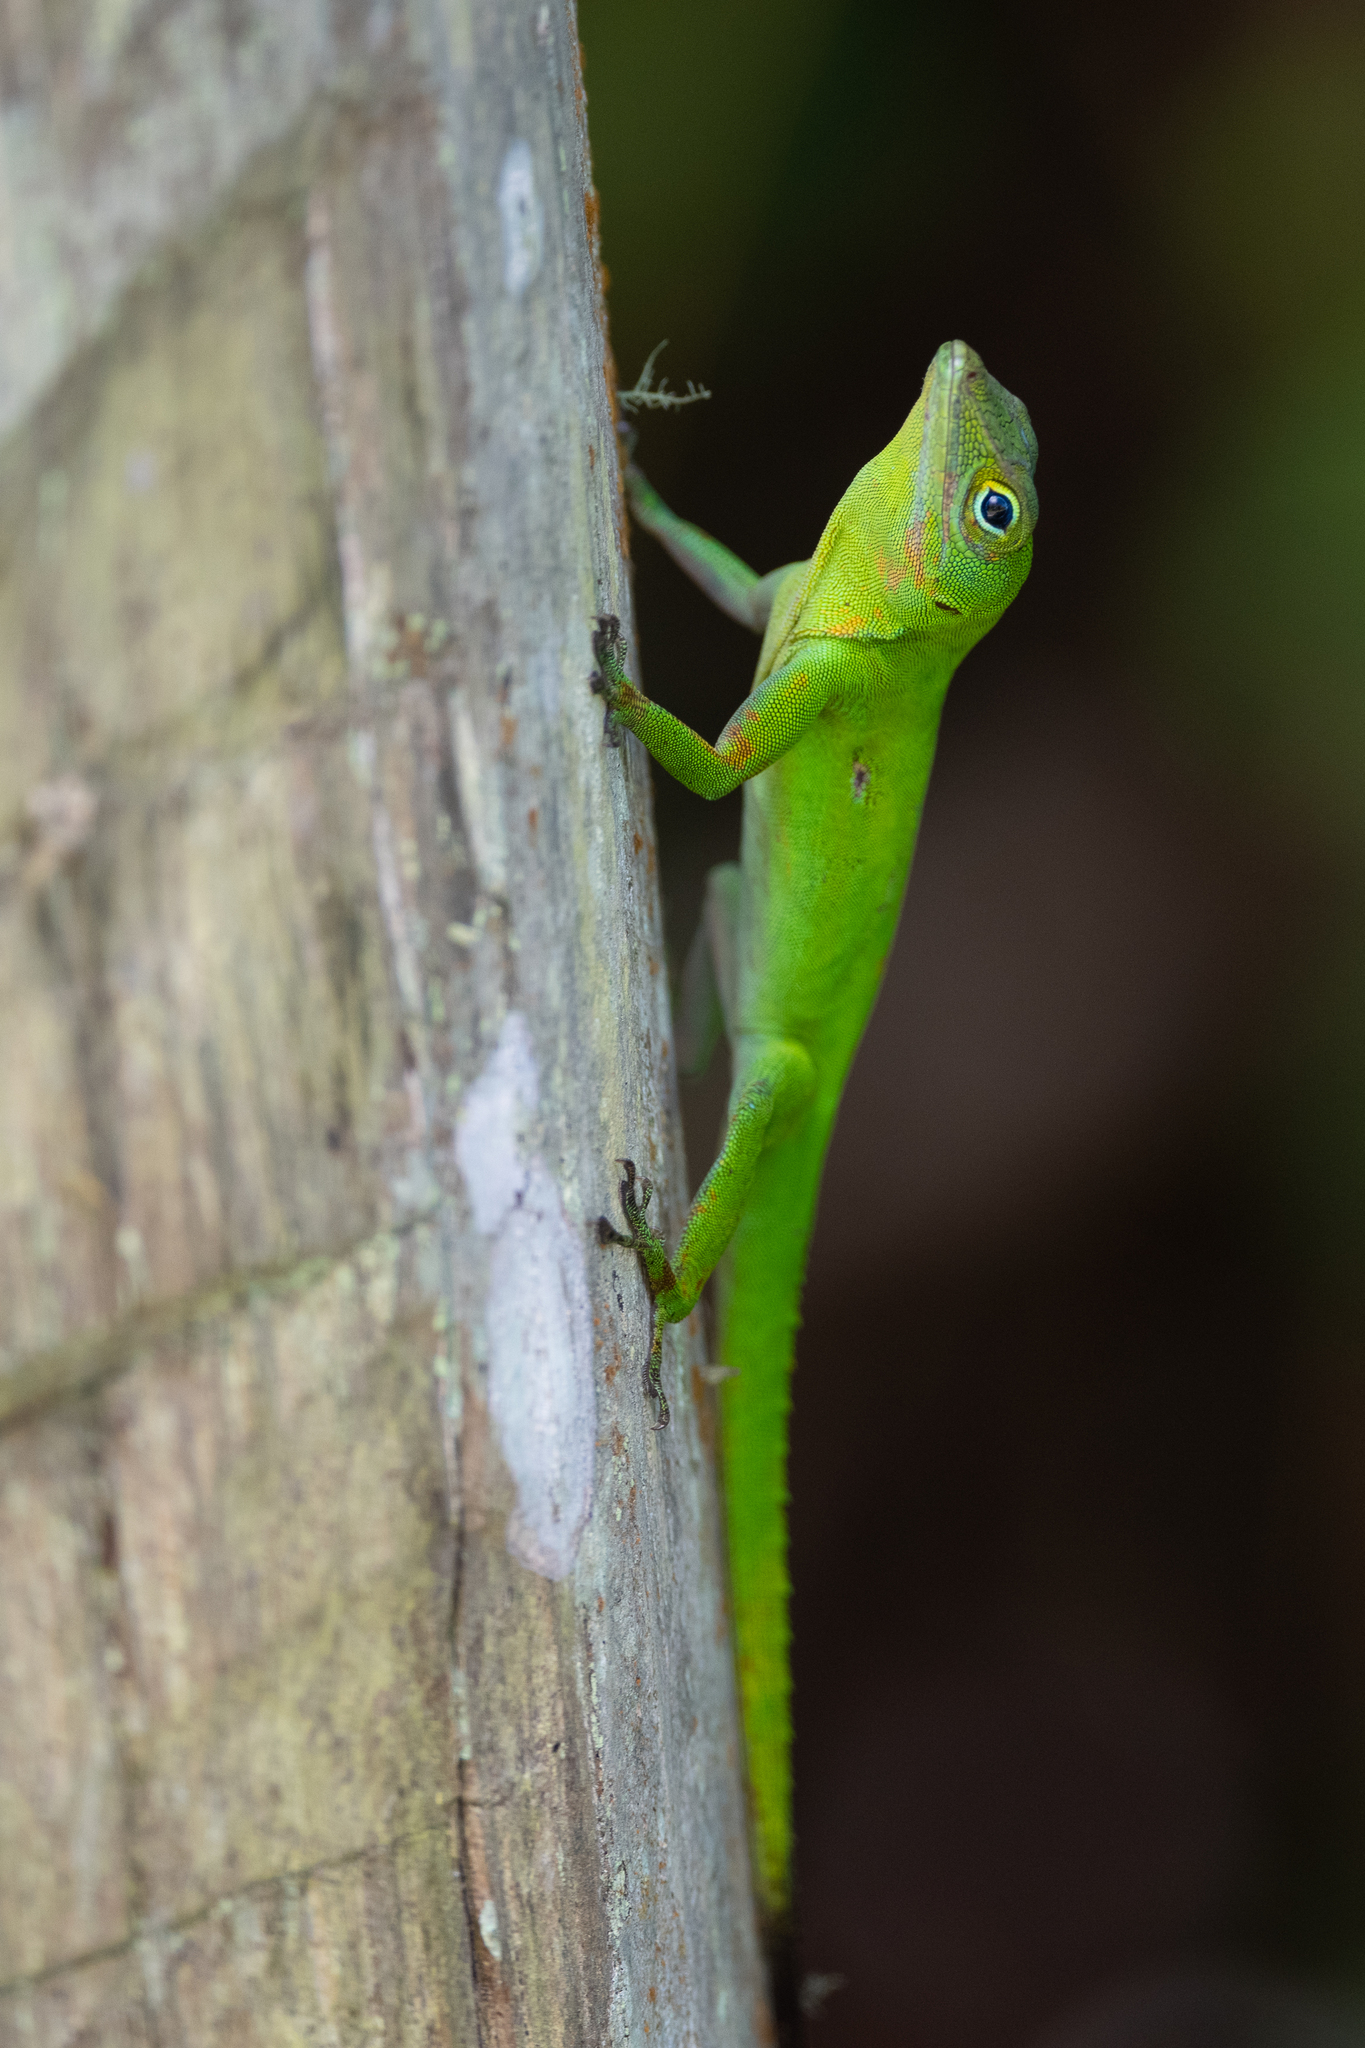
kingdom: Animalia
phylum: Chordata
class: Squamata
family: Dactyloidae
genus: Anolis
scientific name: Anolis evermanni
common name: Emerald anole
